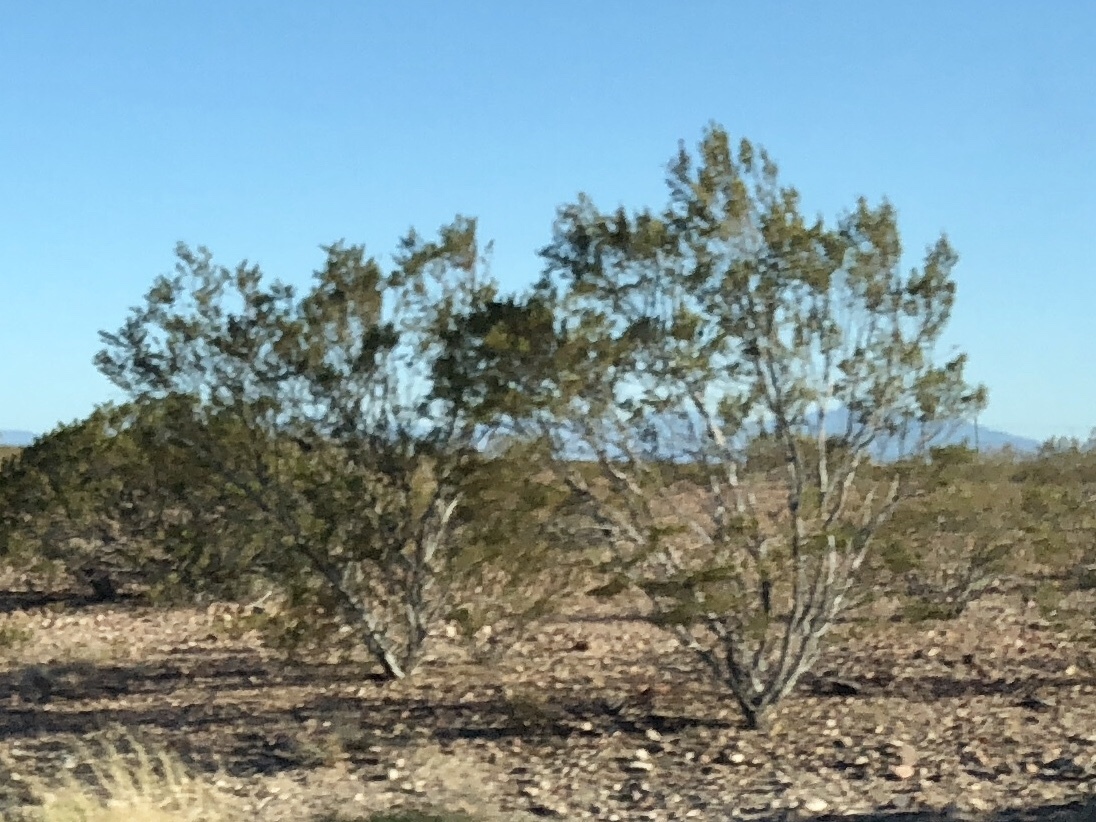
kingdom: Plantae
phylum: Tracheophyta
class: Magnoliopsida
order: Zygophyllales
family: Zygophyllaceae
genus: Larrea
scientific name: Larrea tridentata
